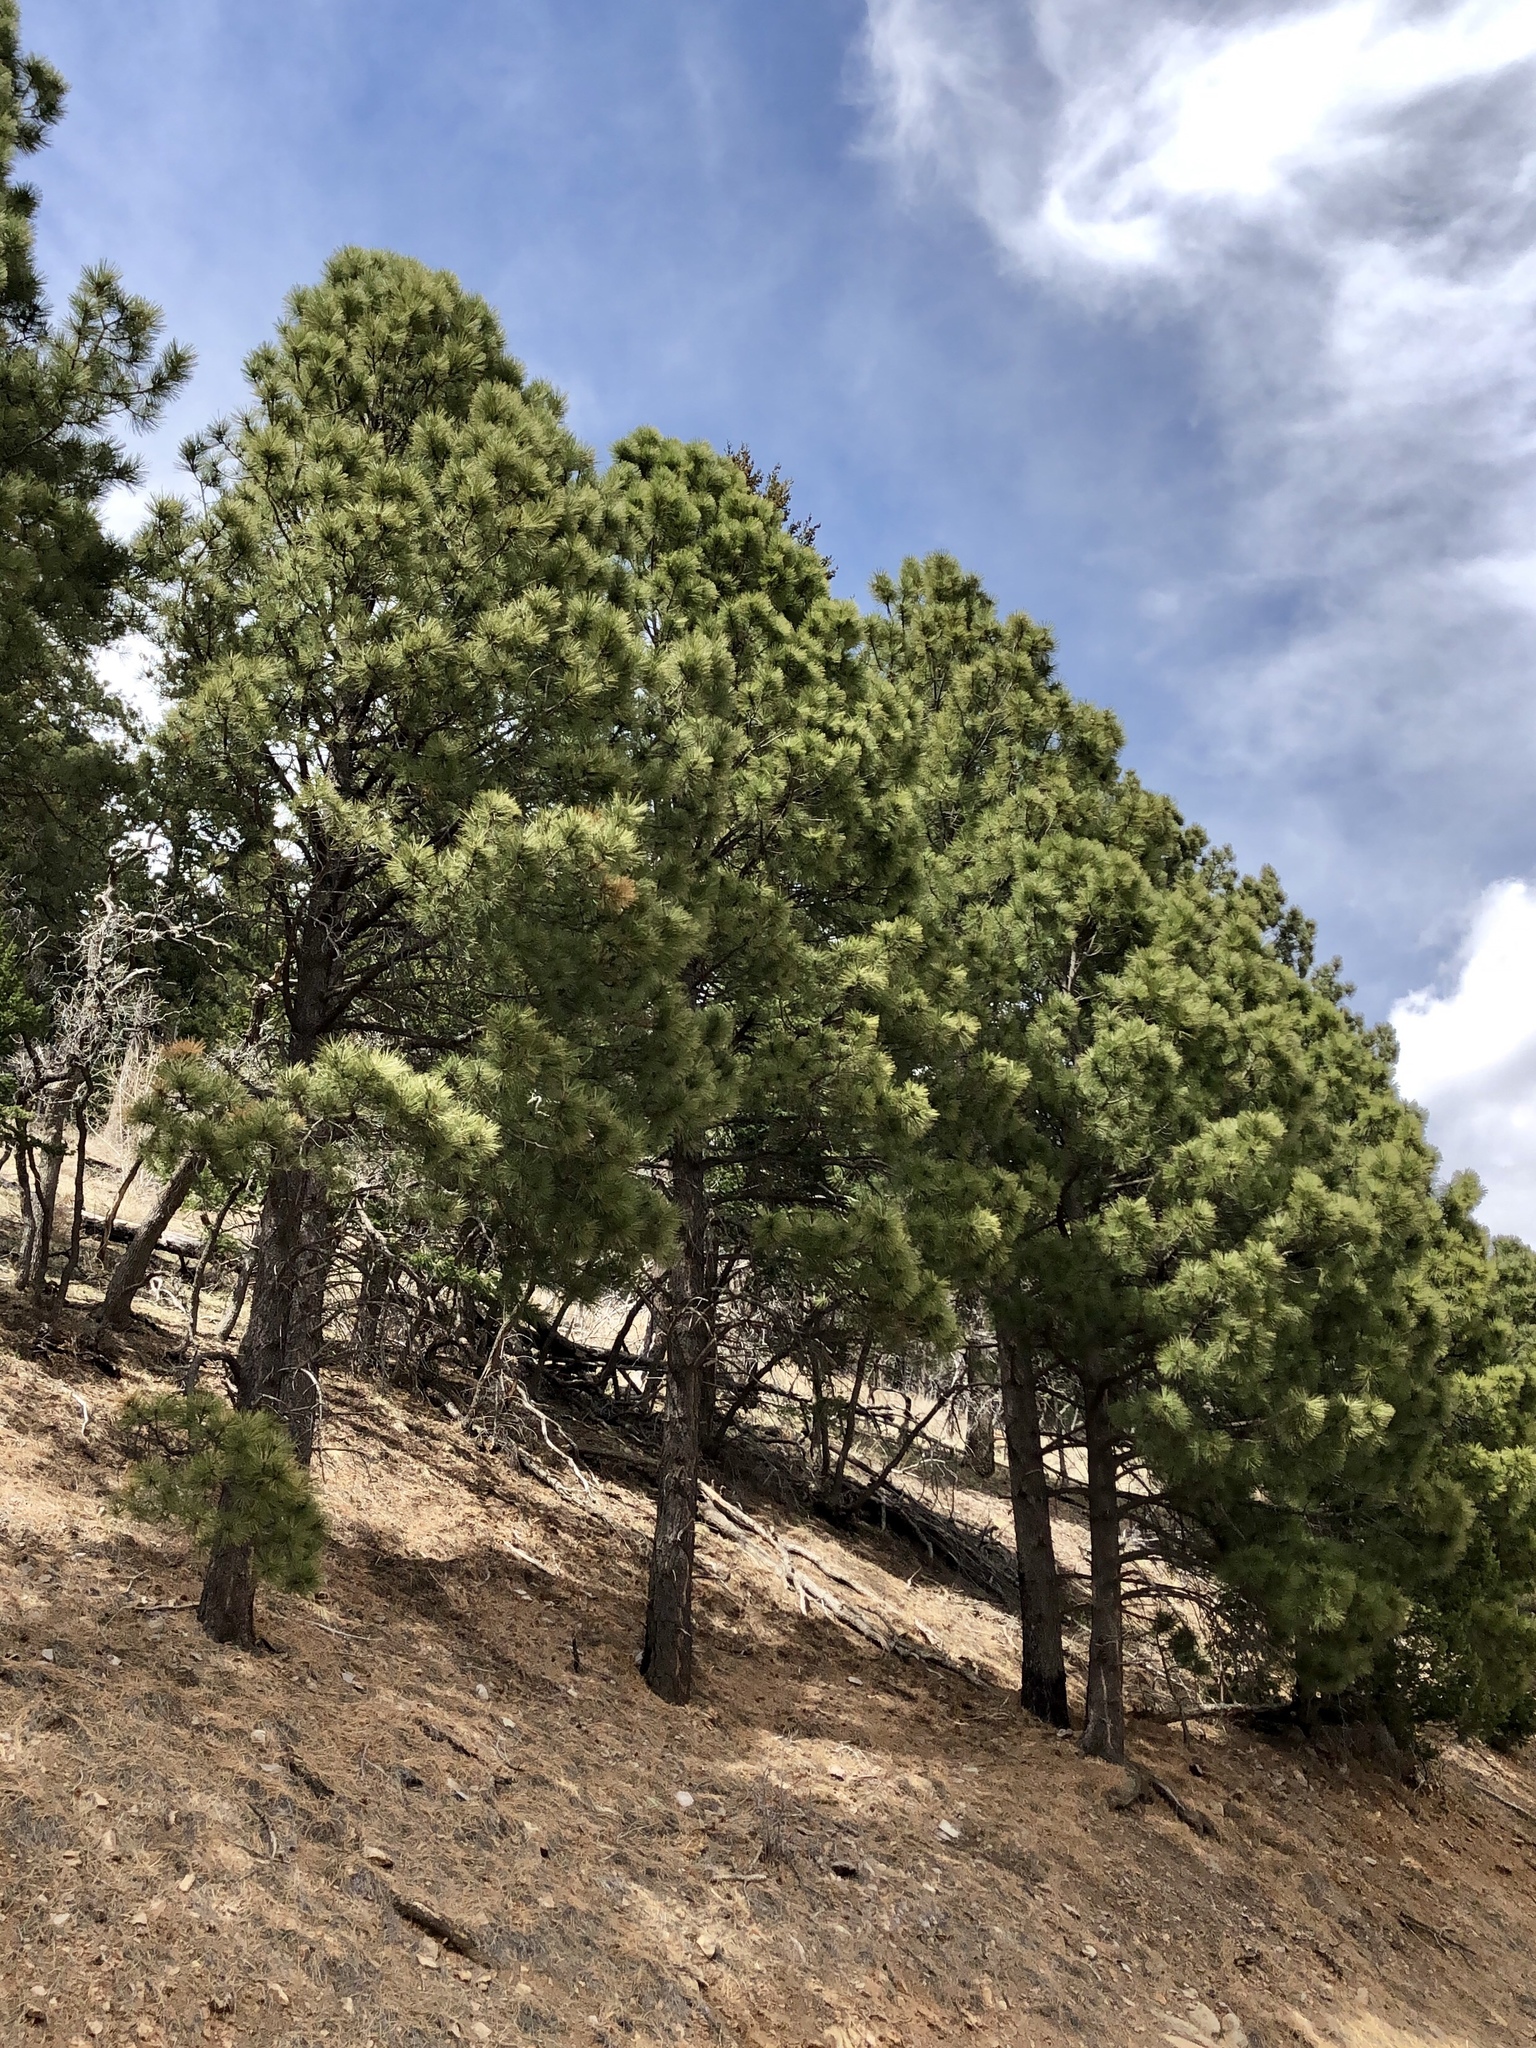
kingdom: Plantae
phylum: Tracheophyta
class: Pinopsida
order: Pinales
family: Pinaceae
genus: Pinus
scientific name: Pinus ponderosa
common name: Western yellow-pine
